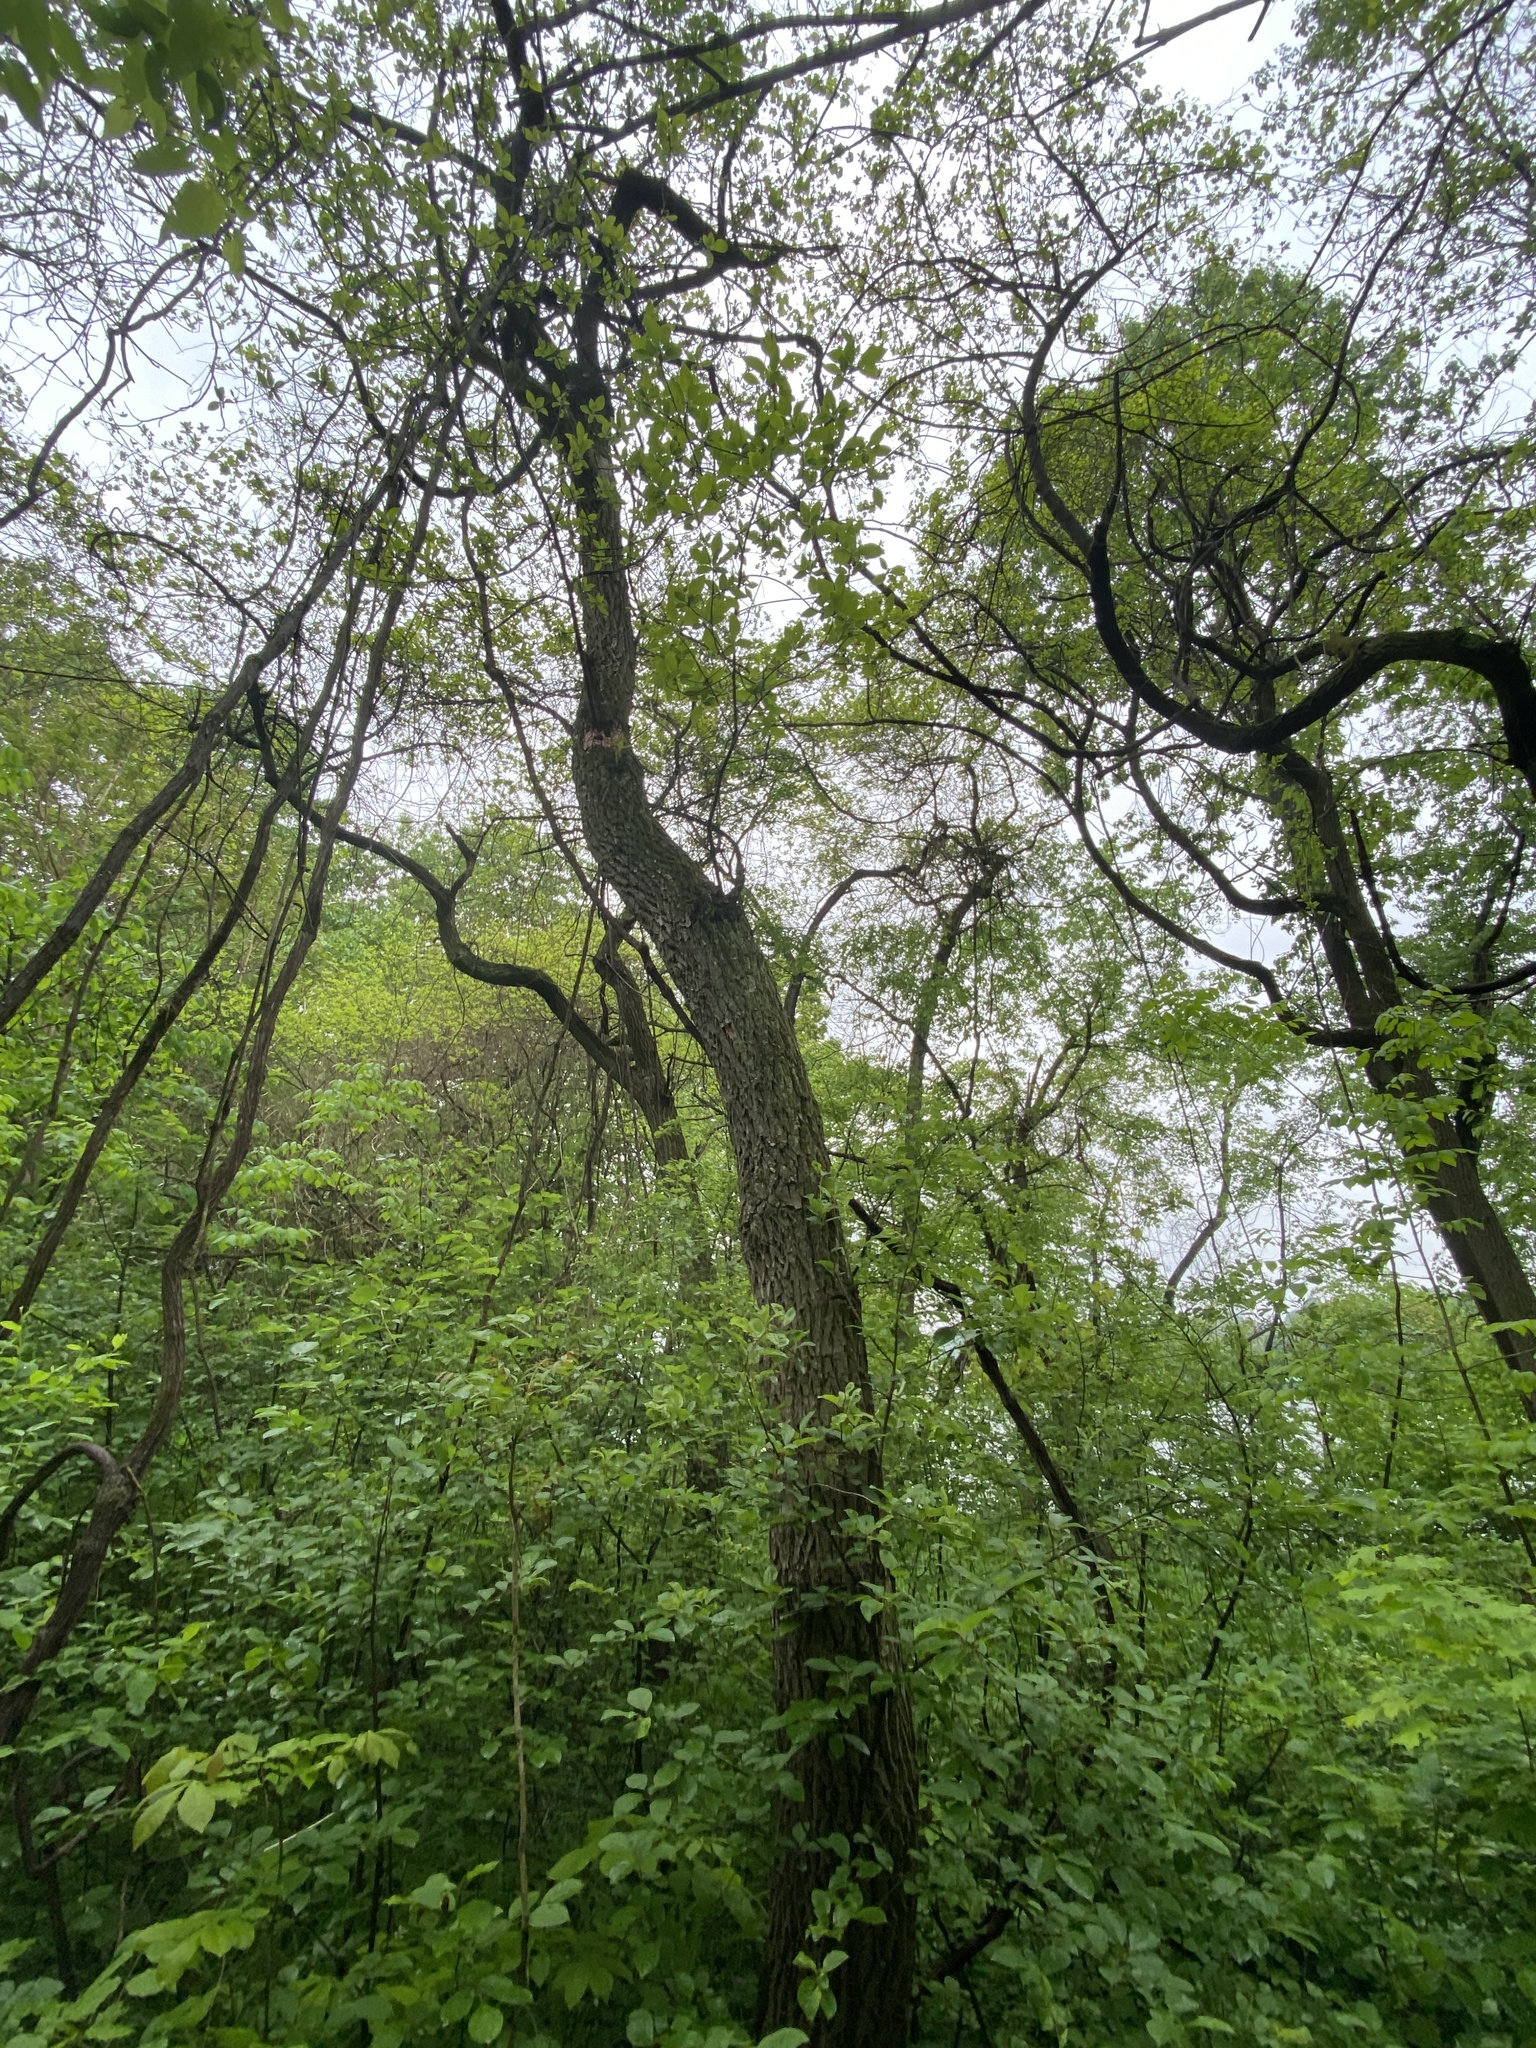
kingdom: Plantae
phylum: Tracheophyta
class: Magnoliopsida
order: Laurales
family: Lauraceae
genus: Sassafras
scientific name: Sassafras albidum
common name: Sassafras
